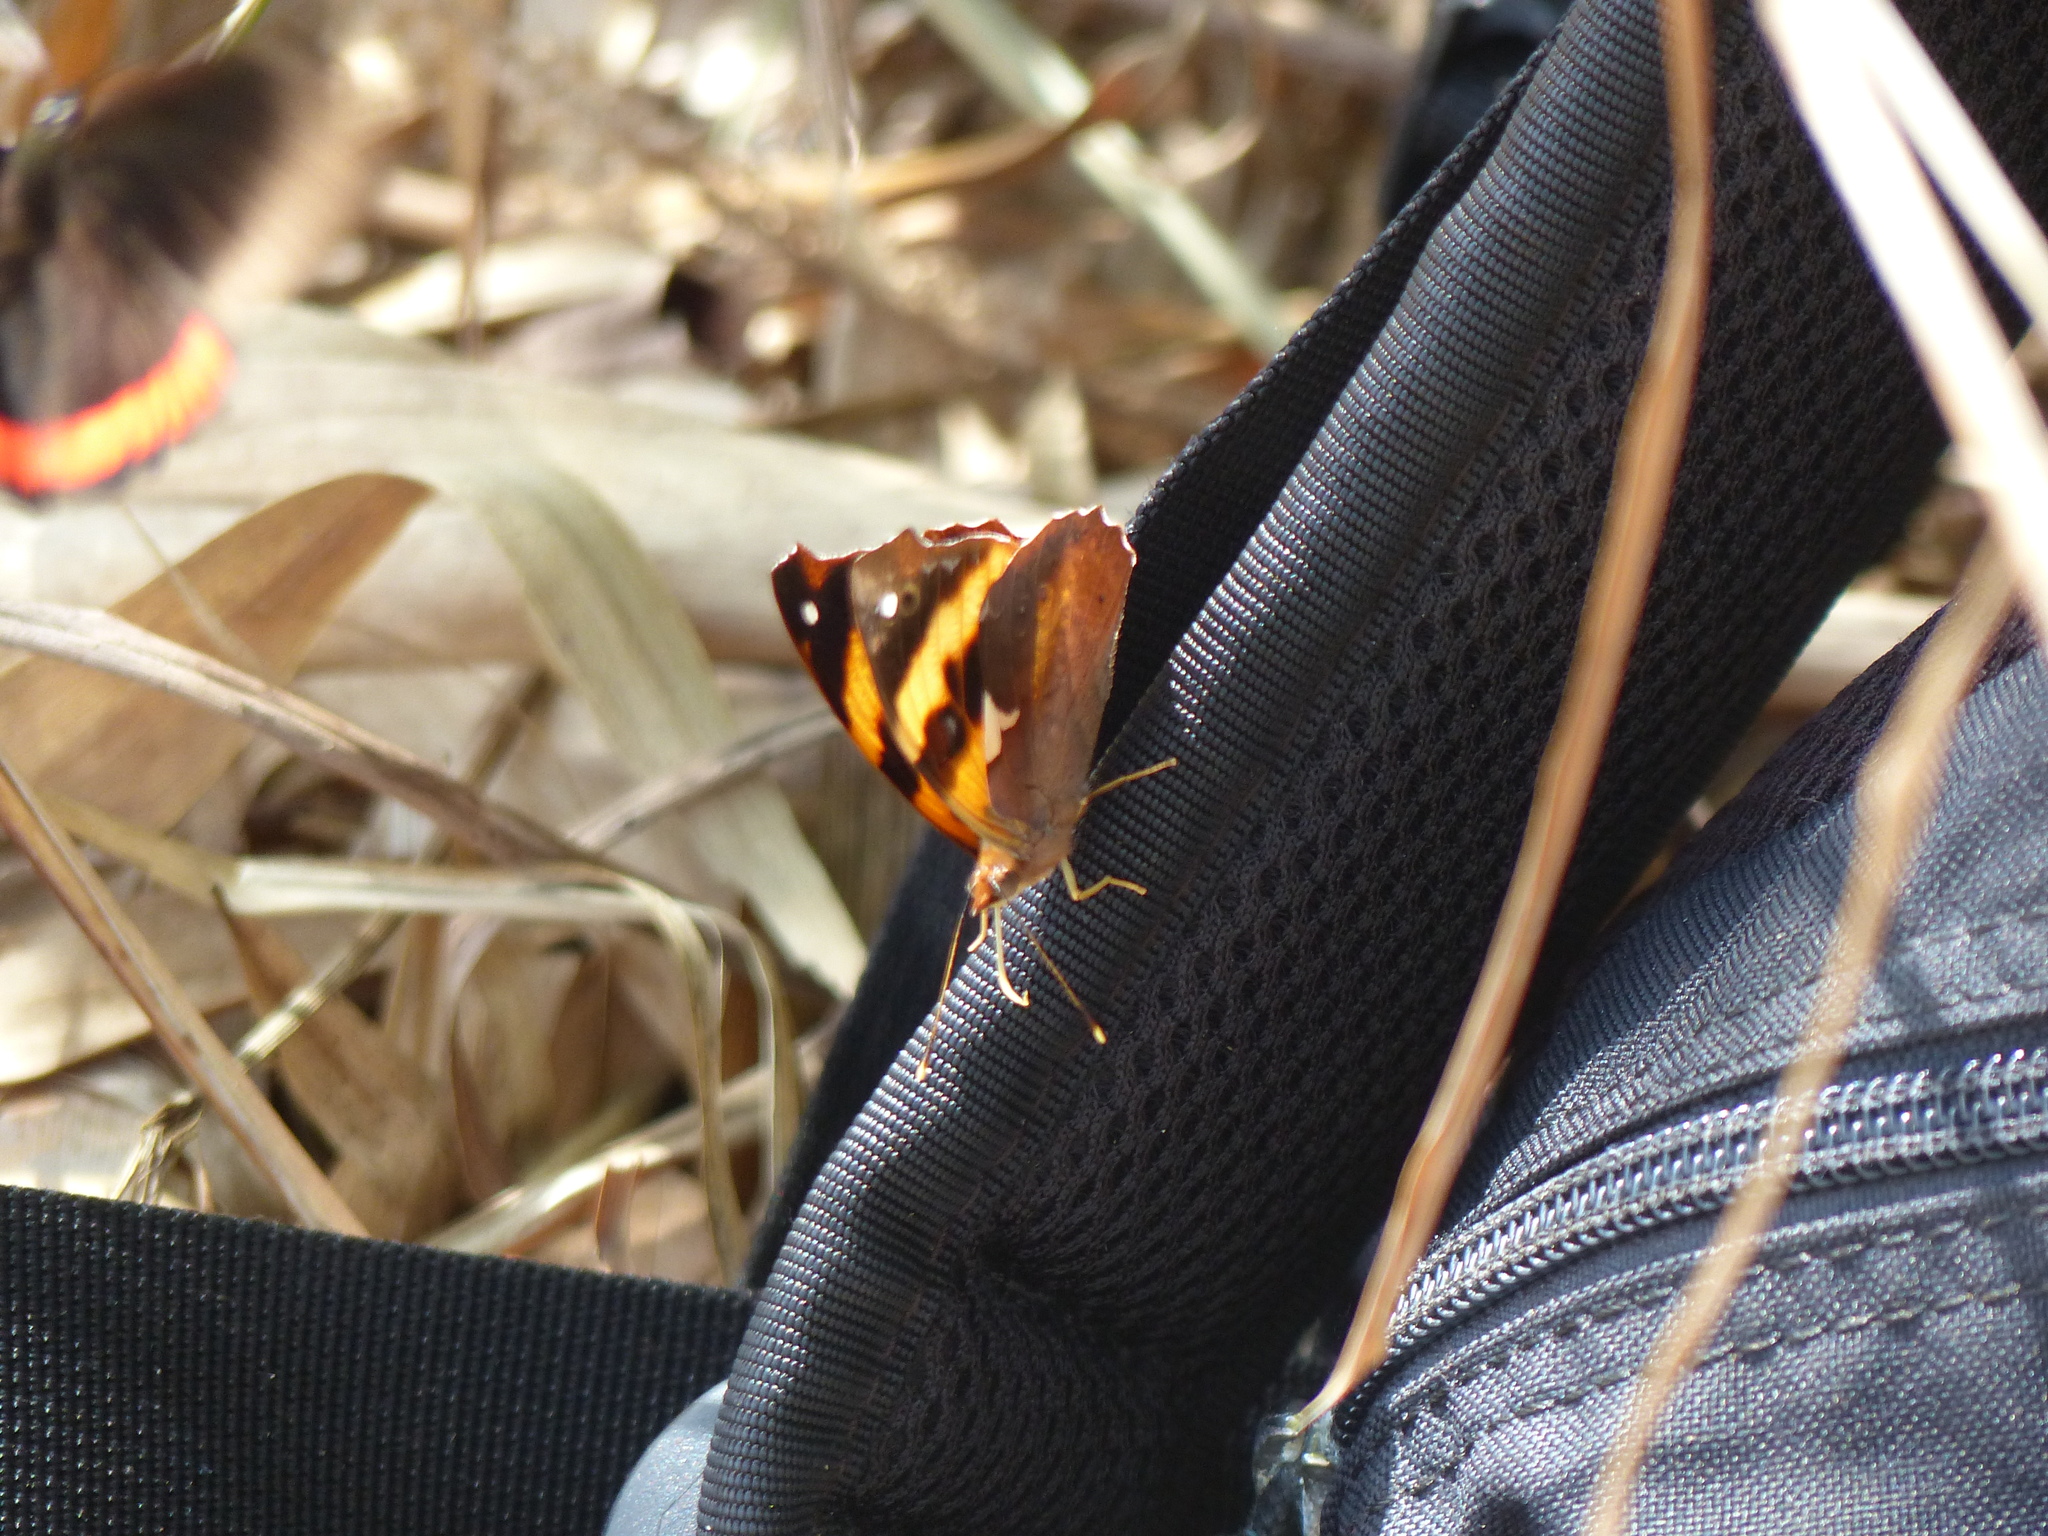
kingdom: Animalia
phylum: Arthropoda
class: Insecta
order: Lepidoptera
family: Nymphalidae
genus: Epiphile
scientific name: Epiphile hubneri
